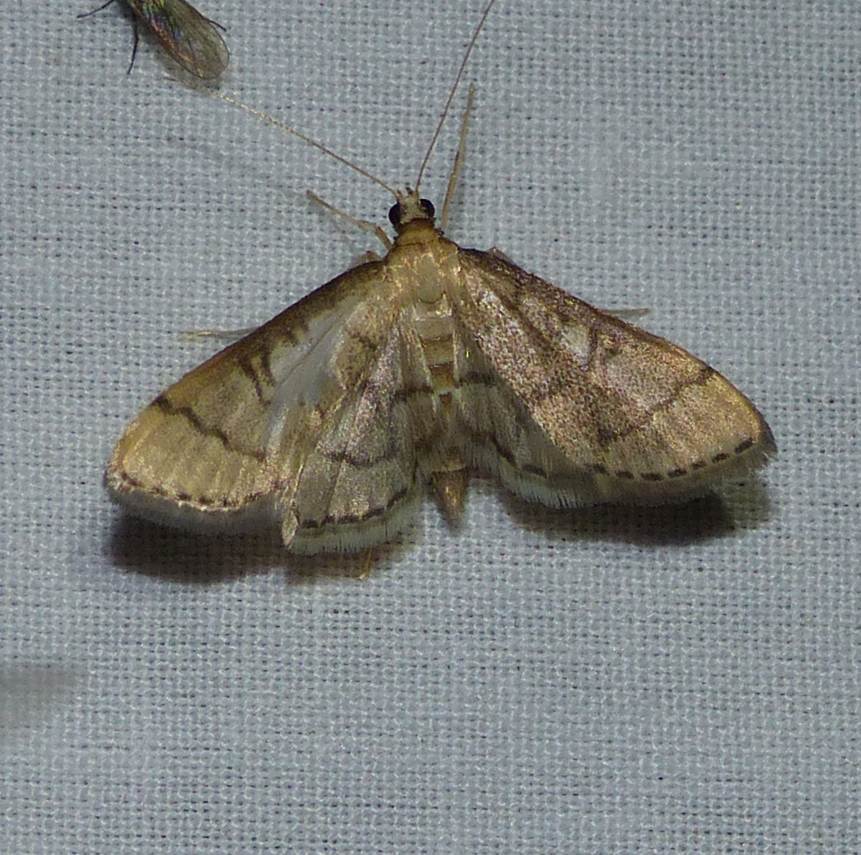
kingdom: Animalia
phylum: Arthropoda
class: Insecta
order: Lepidoptera
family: Crambidae
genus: Lamprosema
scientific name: Lamprosema Blepharomastix ranalis
